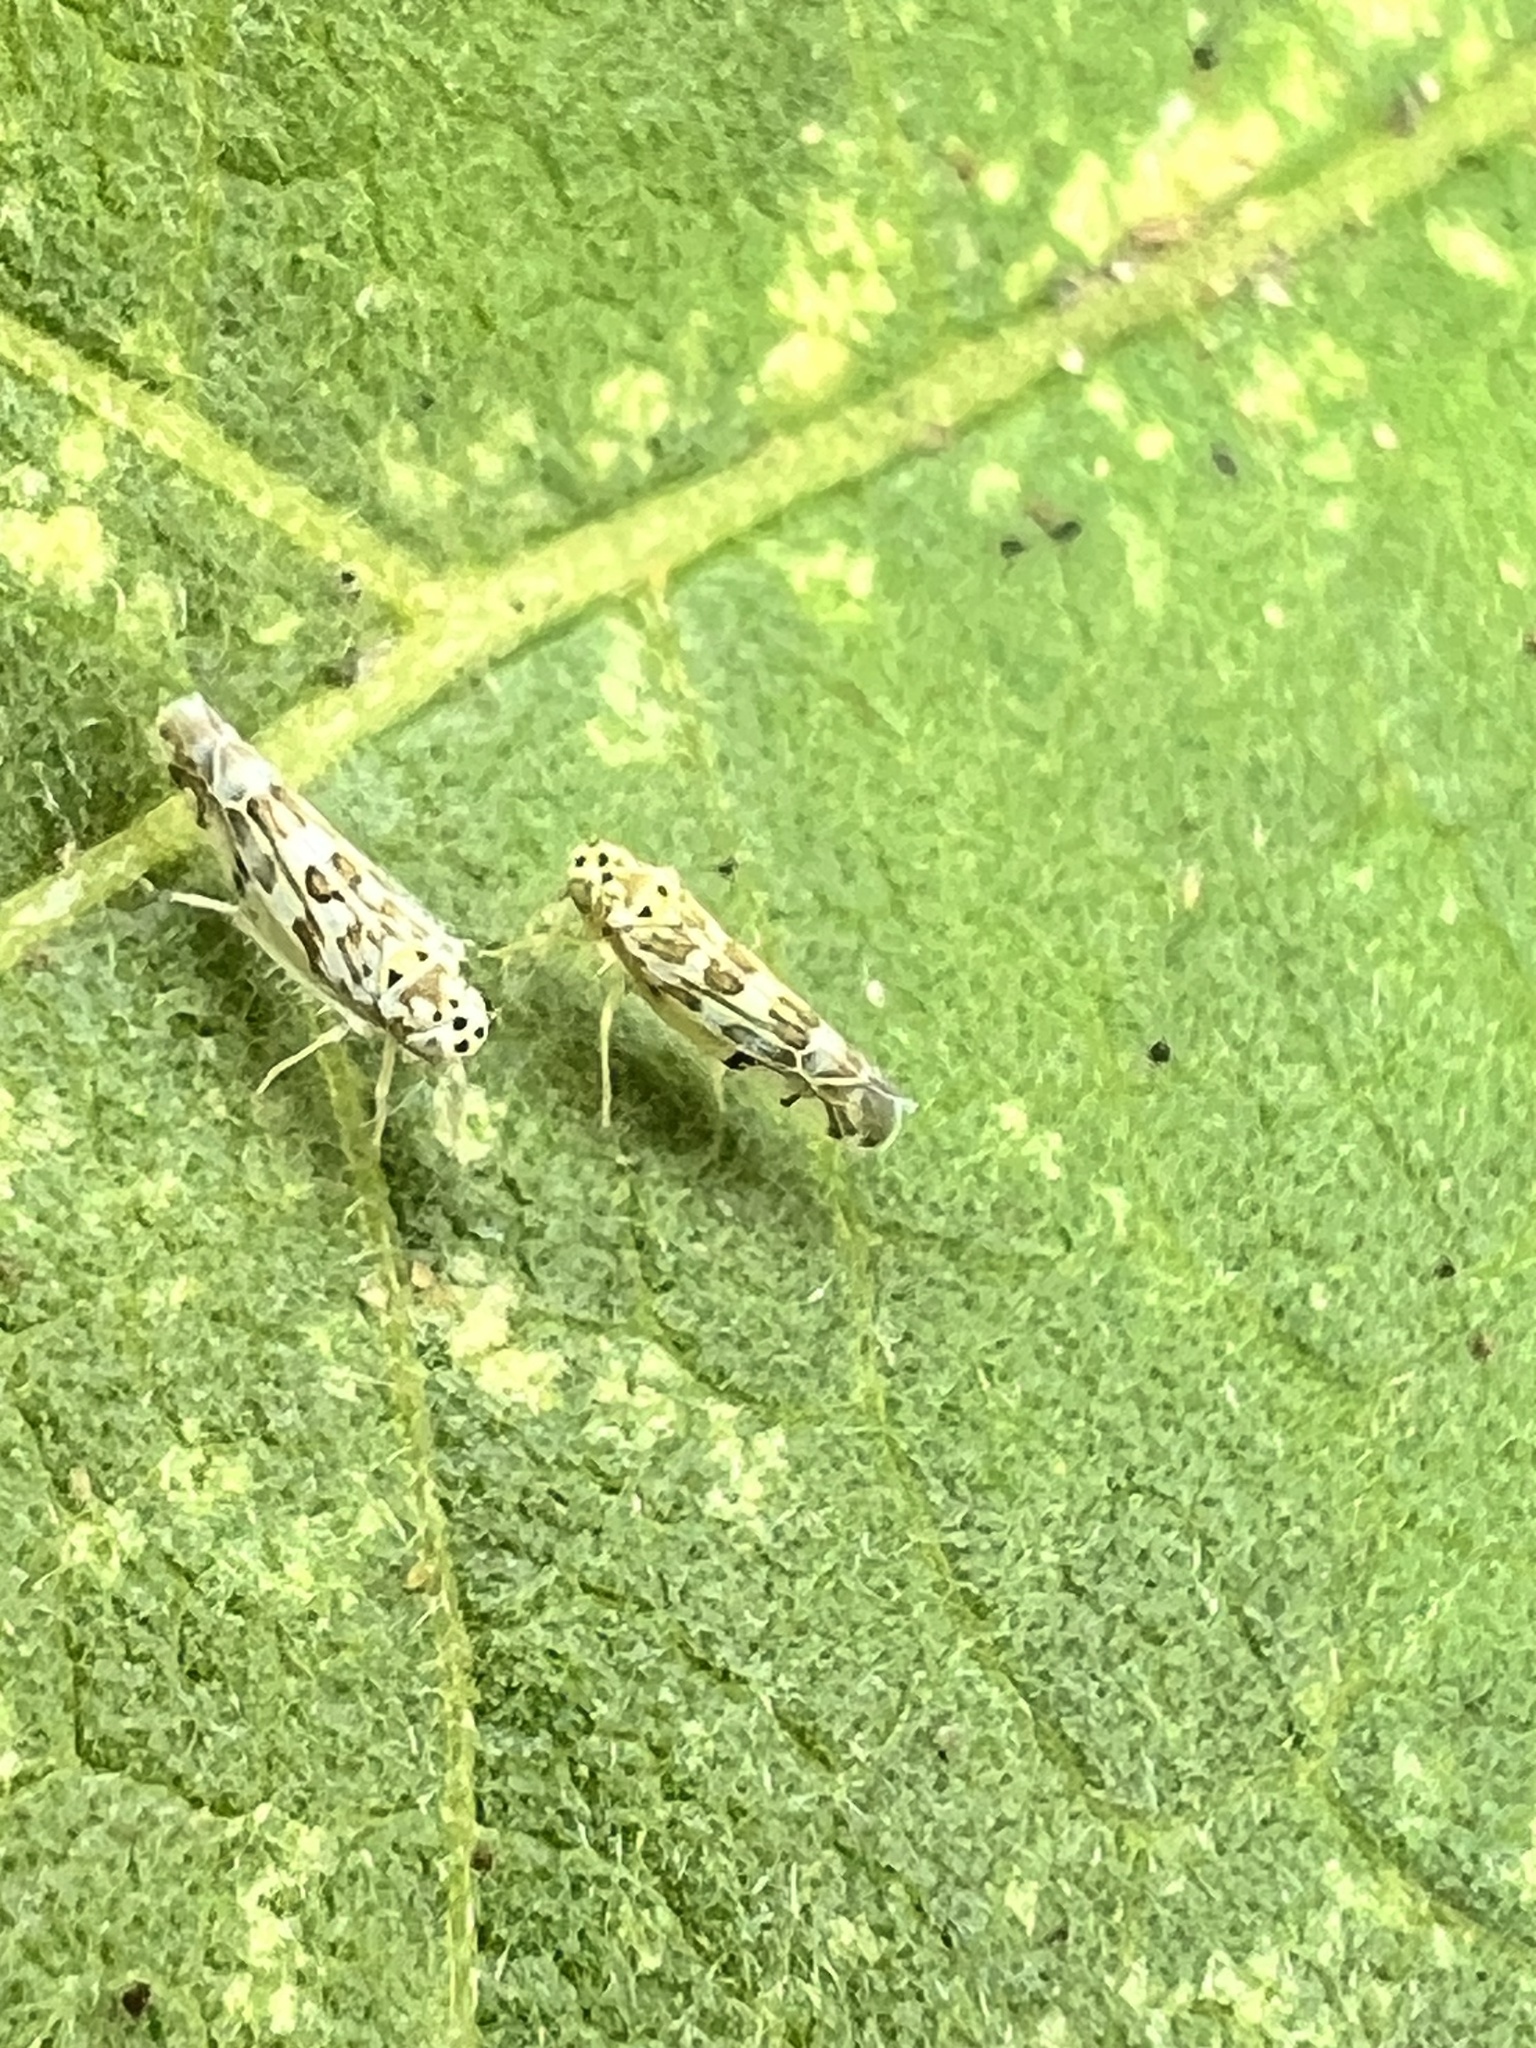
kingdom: Animalia
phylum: Arthropoda
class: Insecta
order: Hemiptera
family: Cicadellidae
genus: Eupteryx
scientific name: Eupteryx melissae
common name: Herb leafhopper
